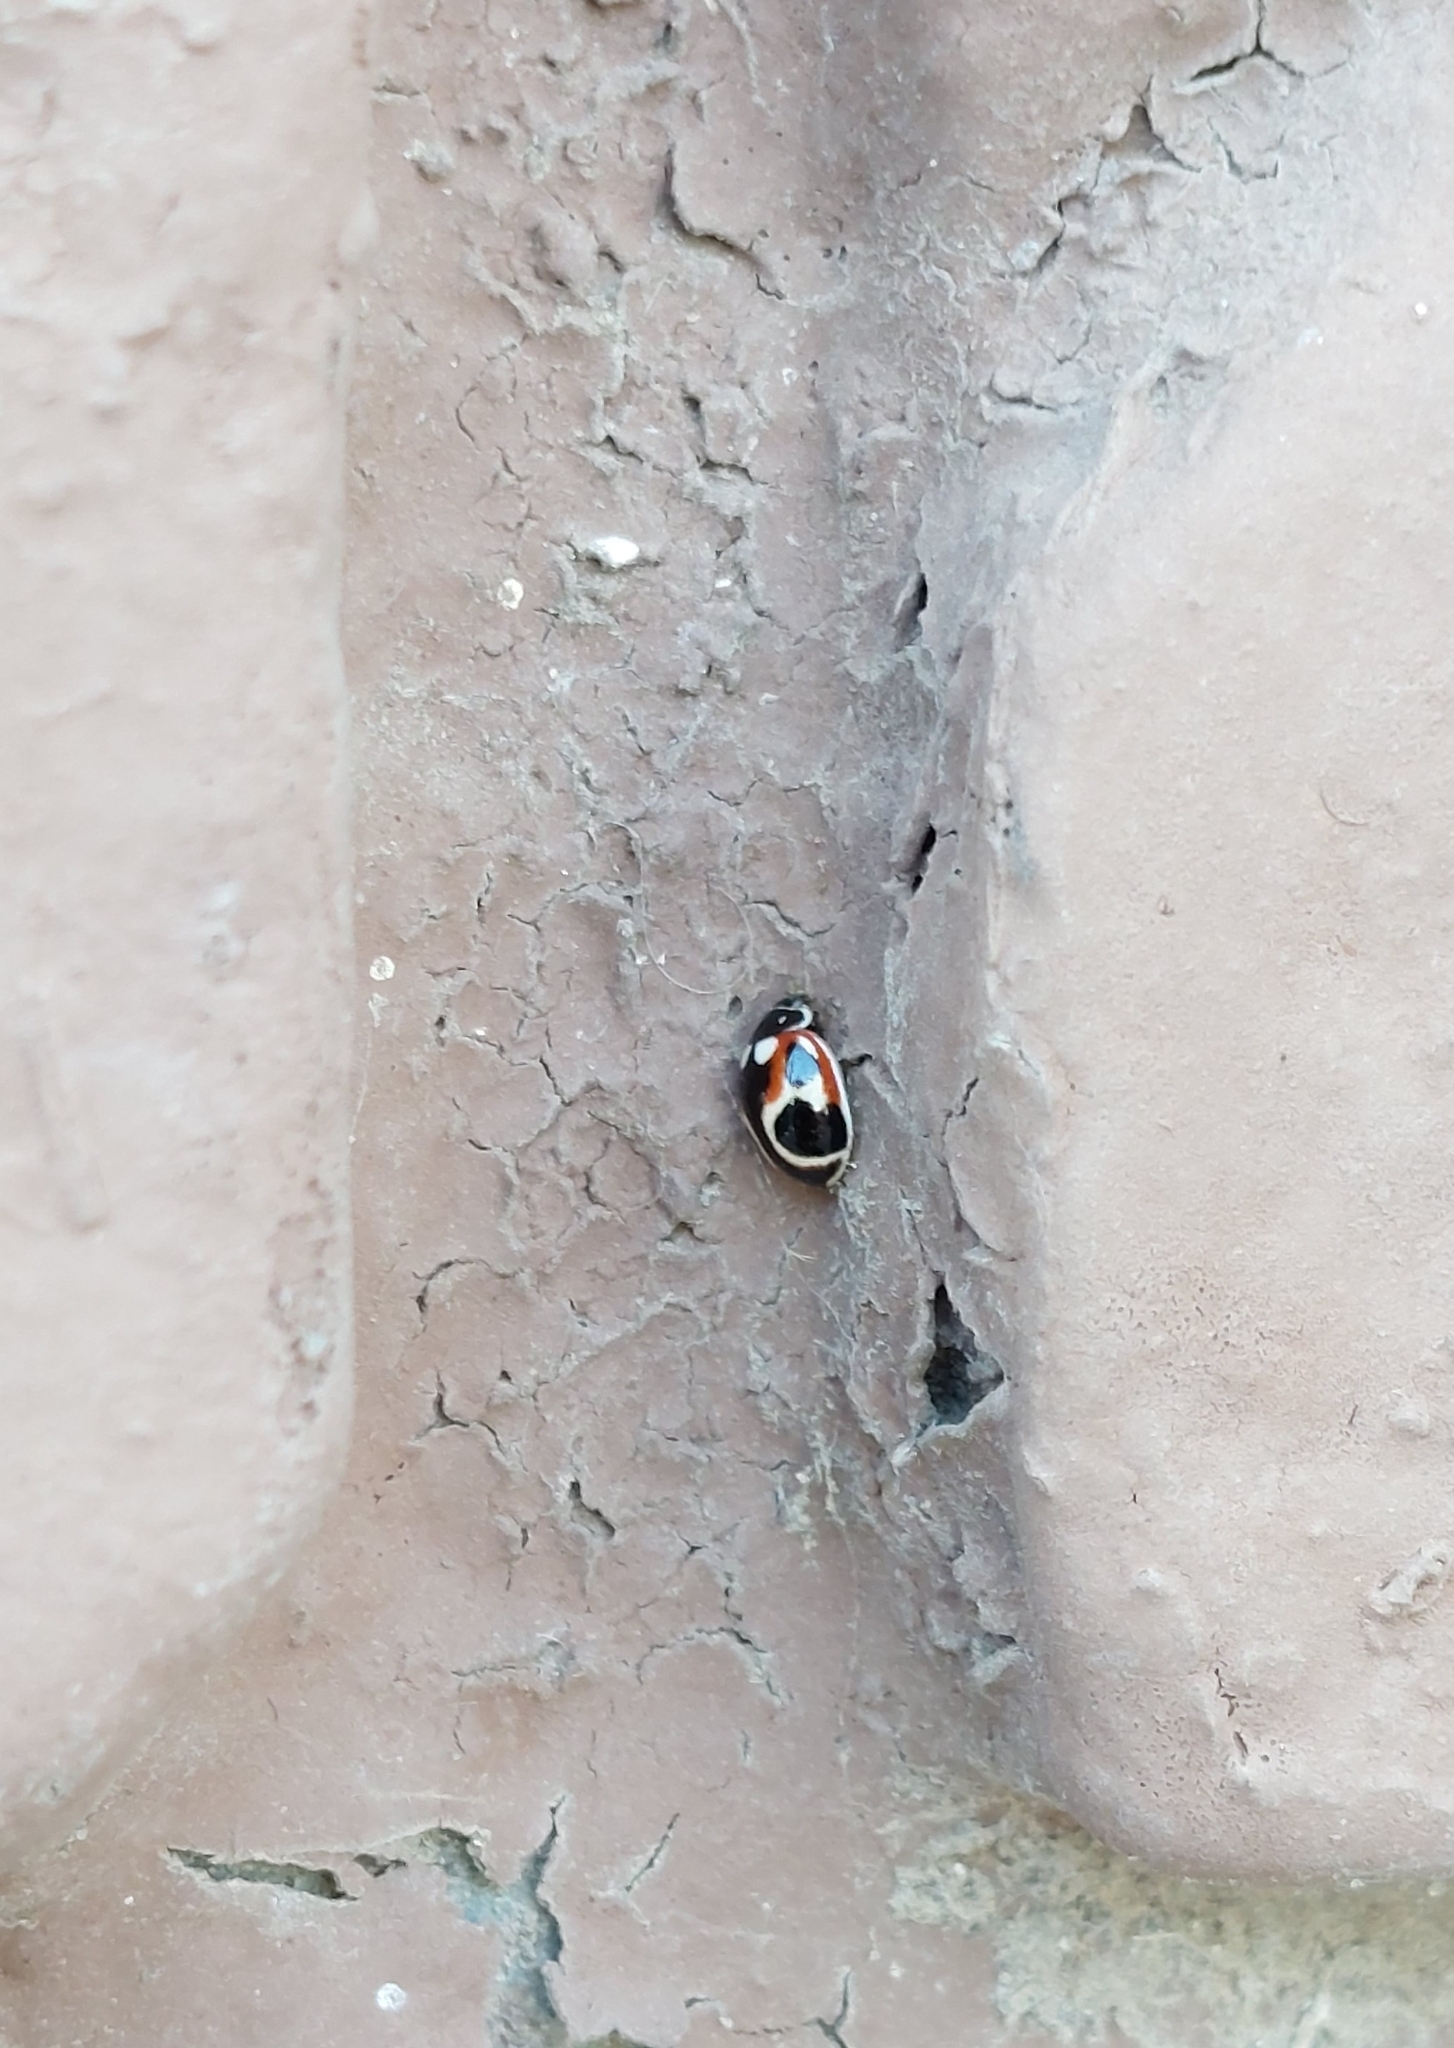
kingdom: Animalia
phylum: Arthropoda
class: Insecta
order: Coleoptera
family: Coccinellidae
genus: Cycloneda
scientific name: Cycloneda ancoralis
